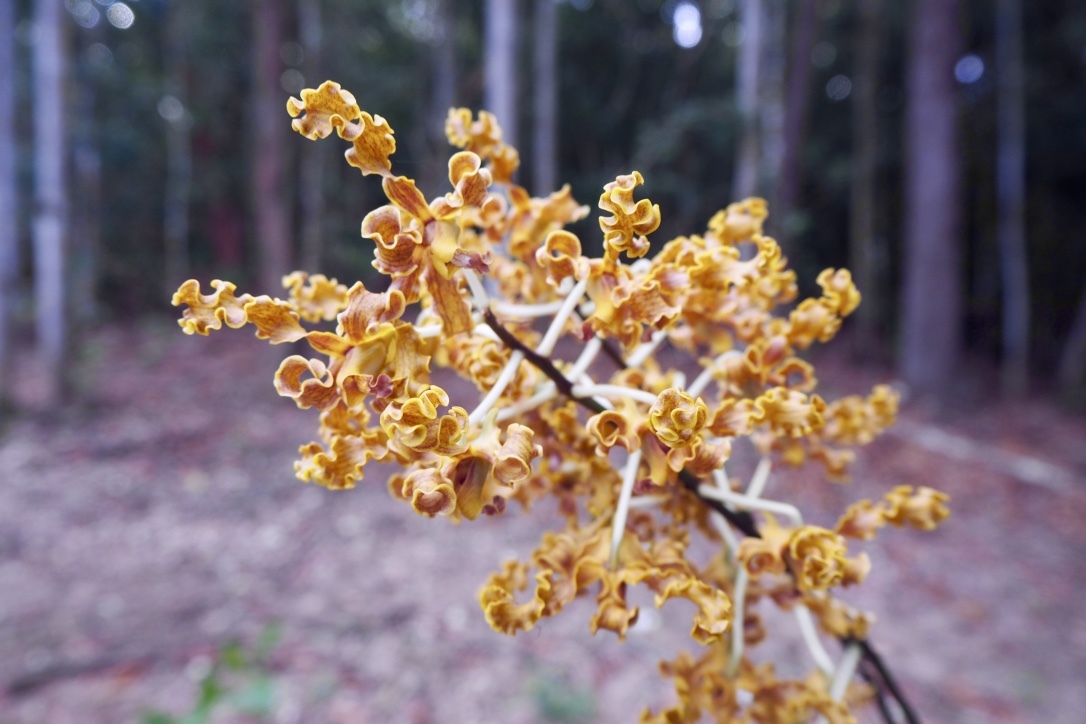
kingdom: Plantae
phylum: Tracheophyta
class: Liliopsida
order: Asparagales
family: Orchidaceae
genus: Dendrobium
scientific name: Dendrobium discolor
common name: Golden antler orchid
